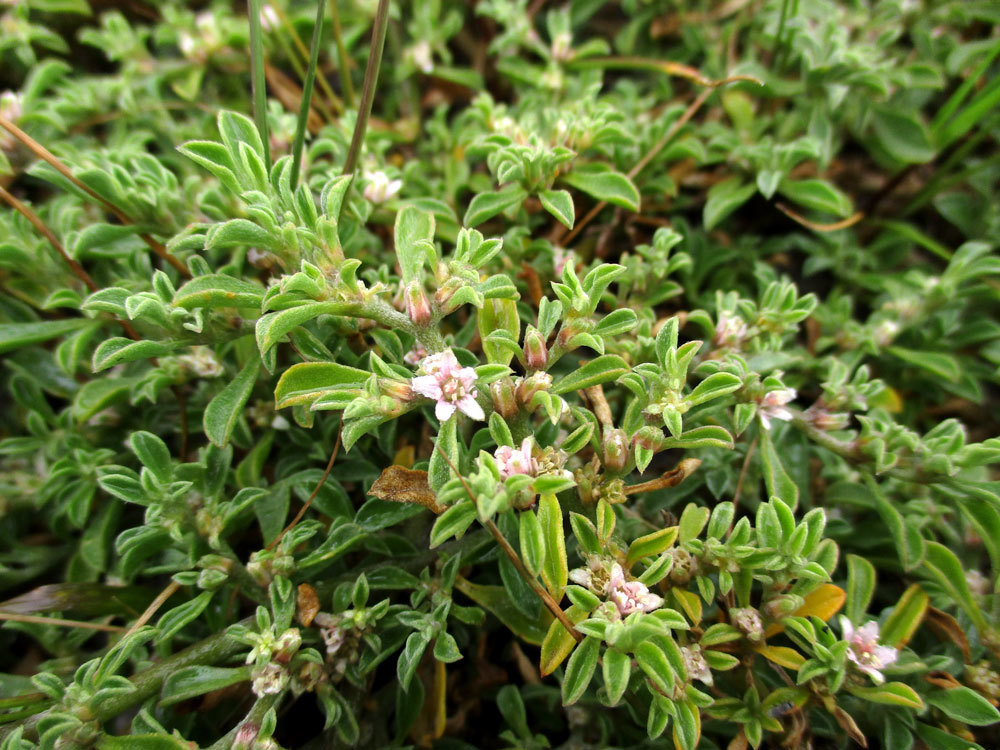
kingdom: Plantae
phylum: Tracheophyta
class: Magnoliopsida
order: Caryophyllales
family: Aizoaceae
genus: Aizoon
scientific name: Aizoon pubescens
